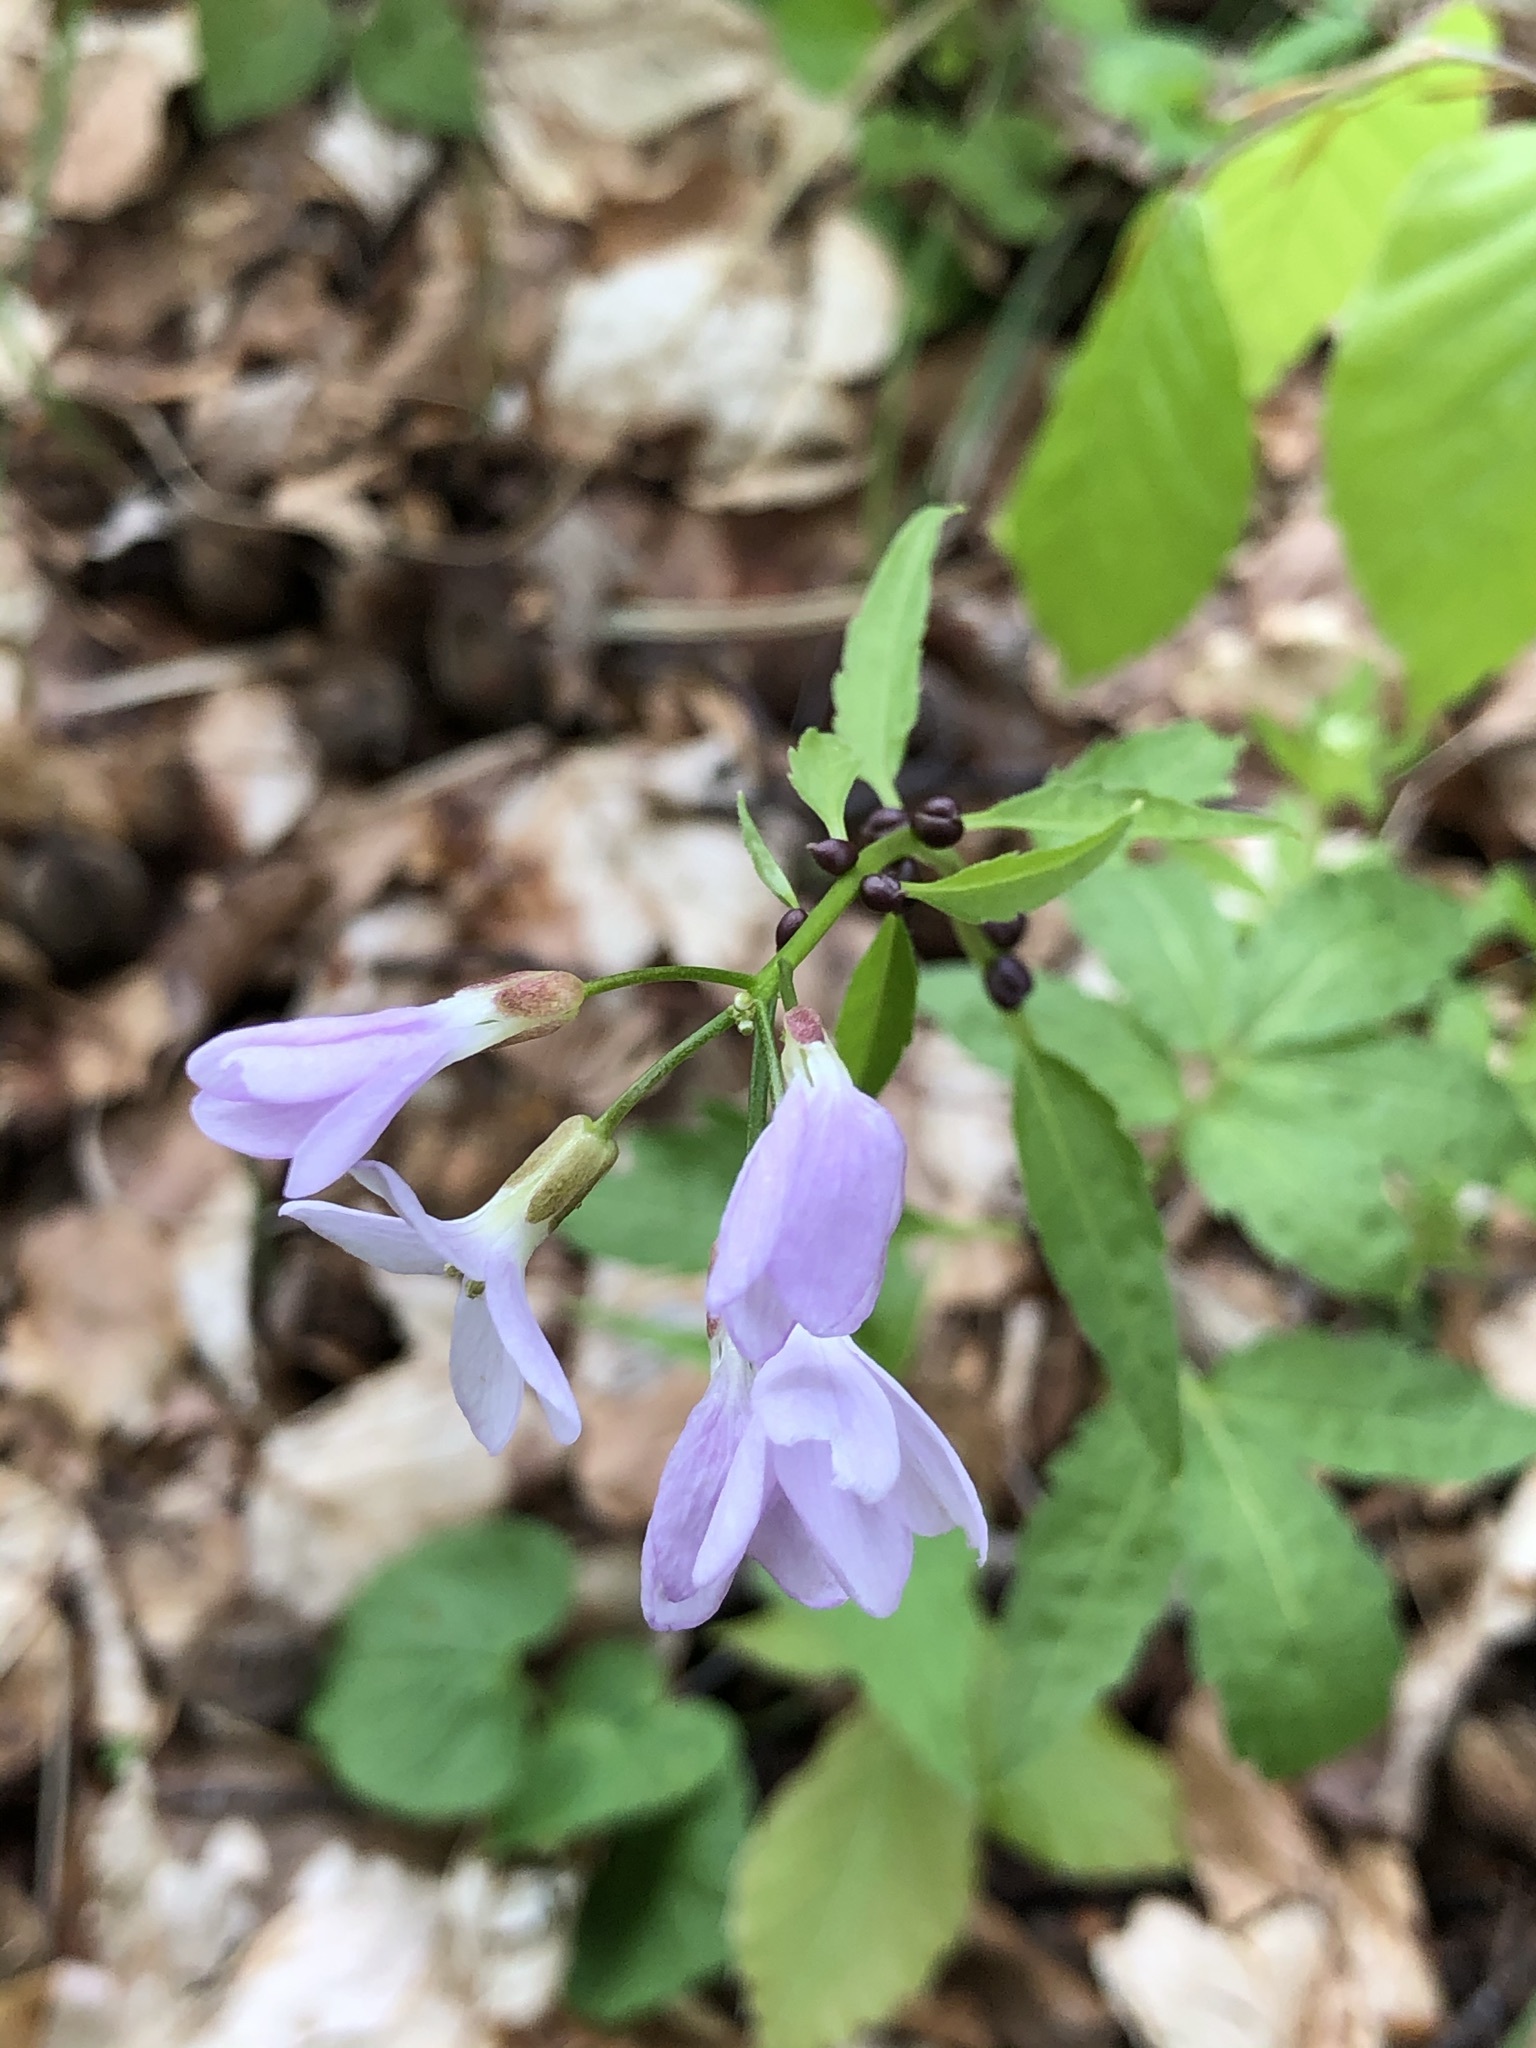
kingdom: Plantae
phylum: Tracheophyta
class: Magnoliopsida
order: Brassicales
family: Brassicaceae
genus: Cardamine
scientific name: Cardamine bulbifera
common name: Coralroot bittercress
